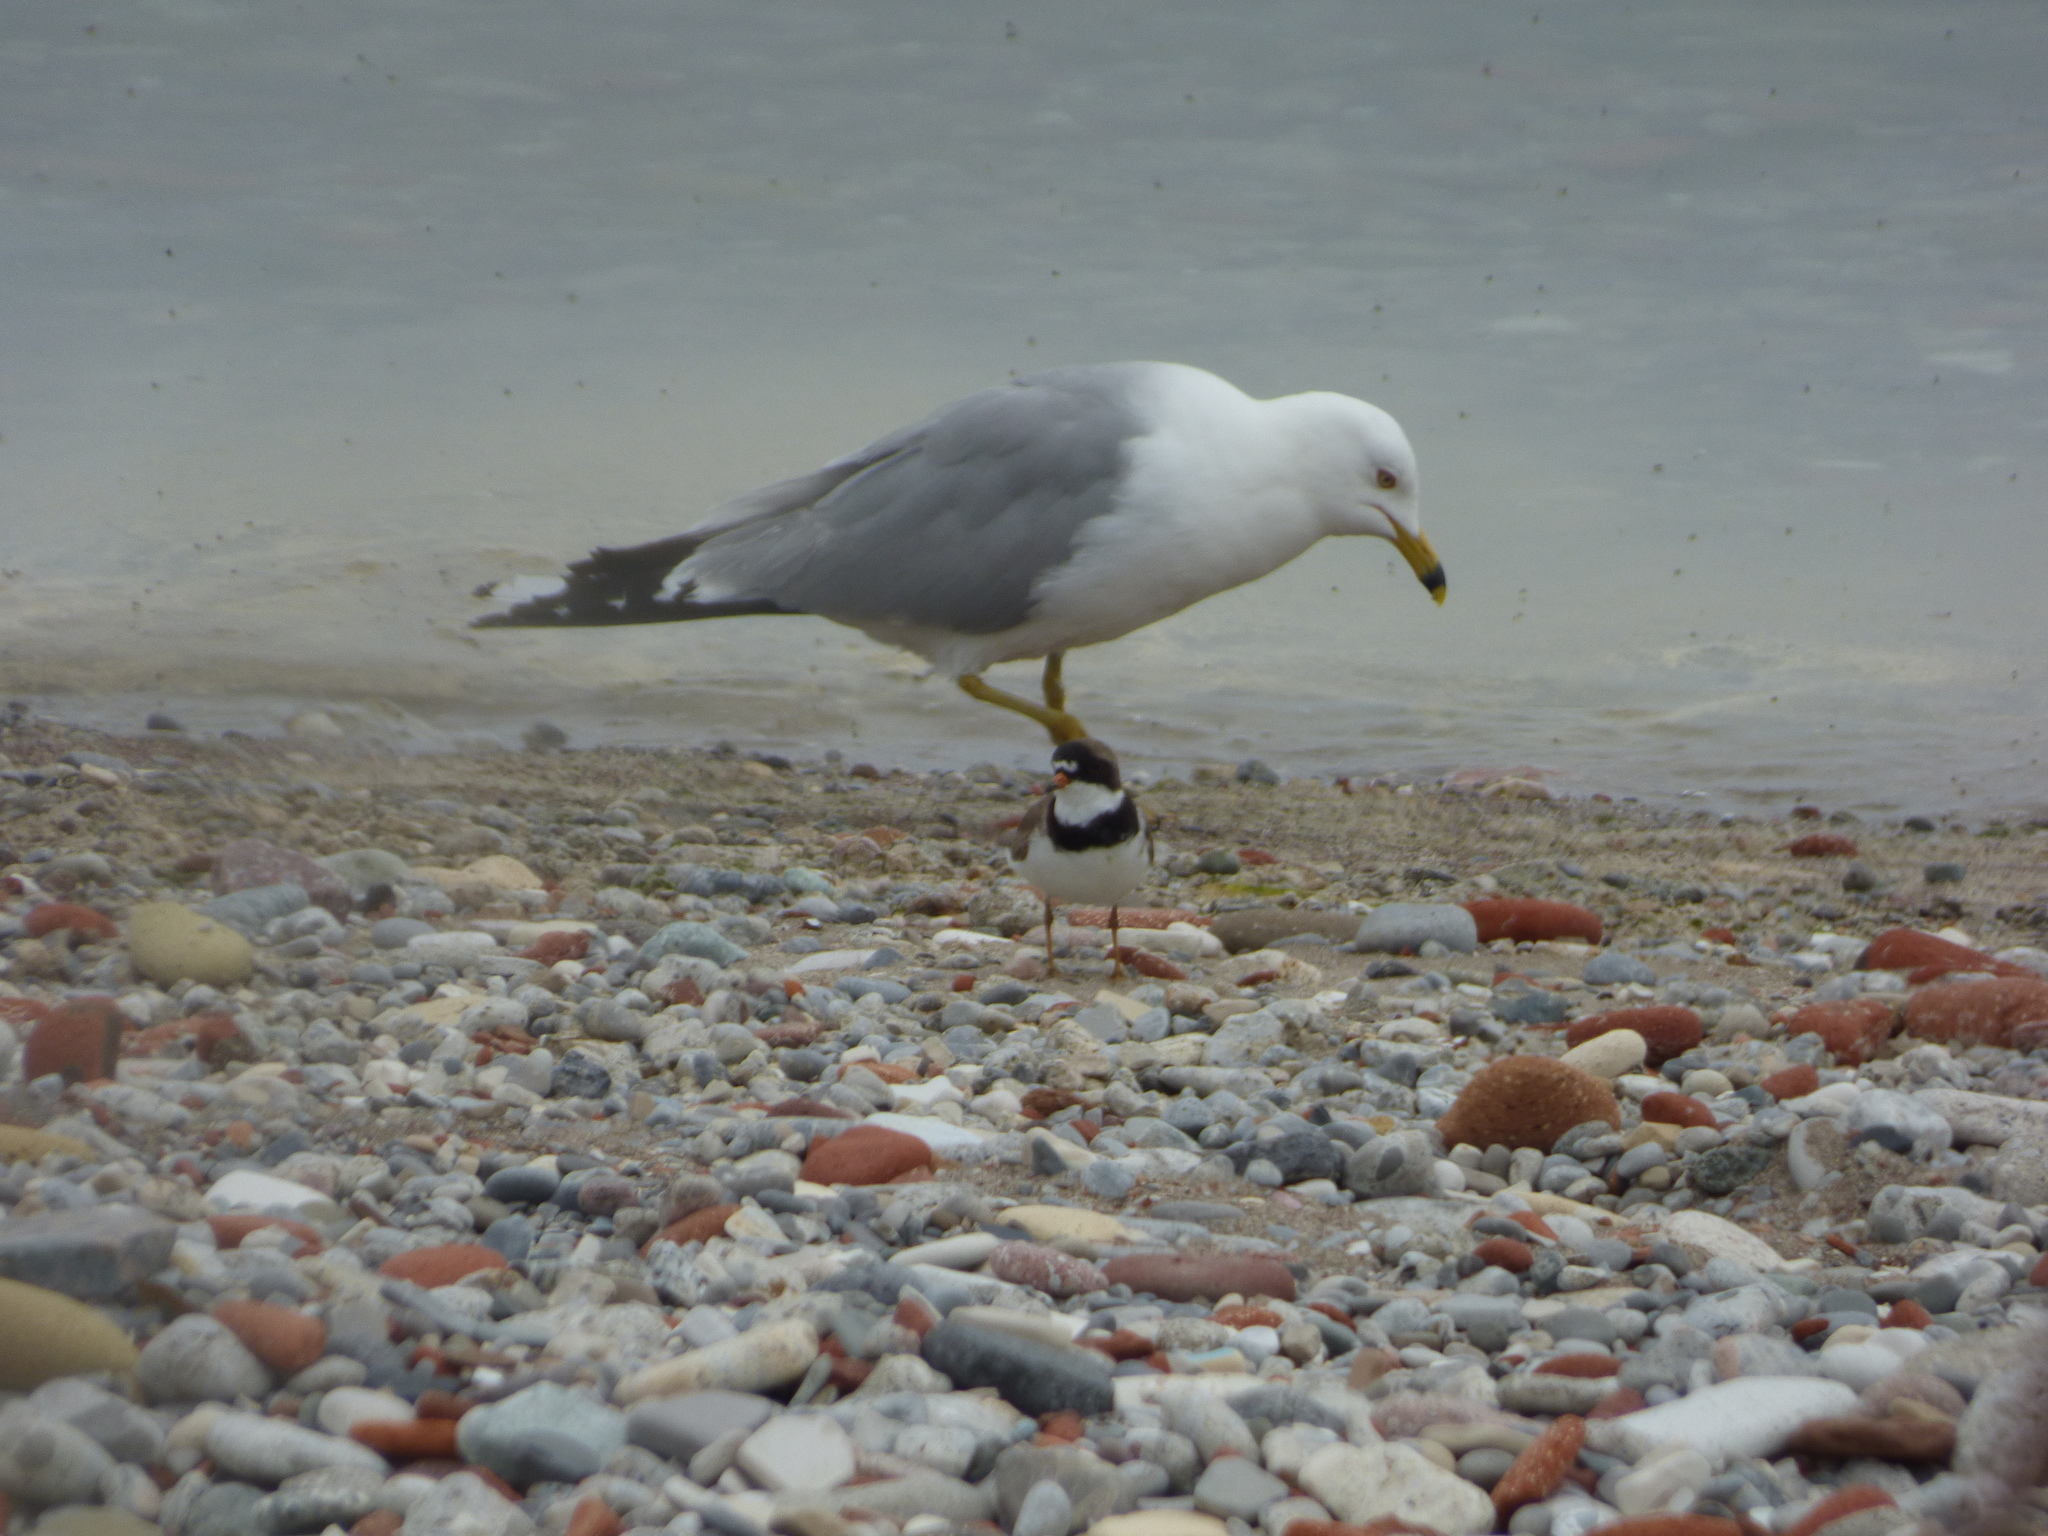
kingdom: Animalia
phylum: Chordata
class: Aves
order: Charadriiformes
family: Laridae
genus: Larus
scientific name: Larus delawarensis
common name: Ring-billed gull
